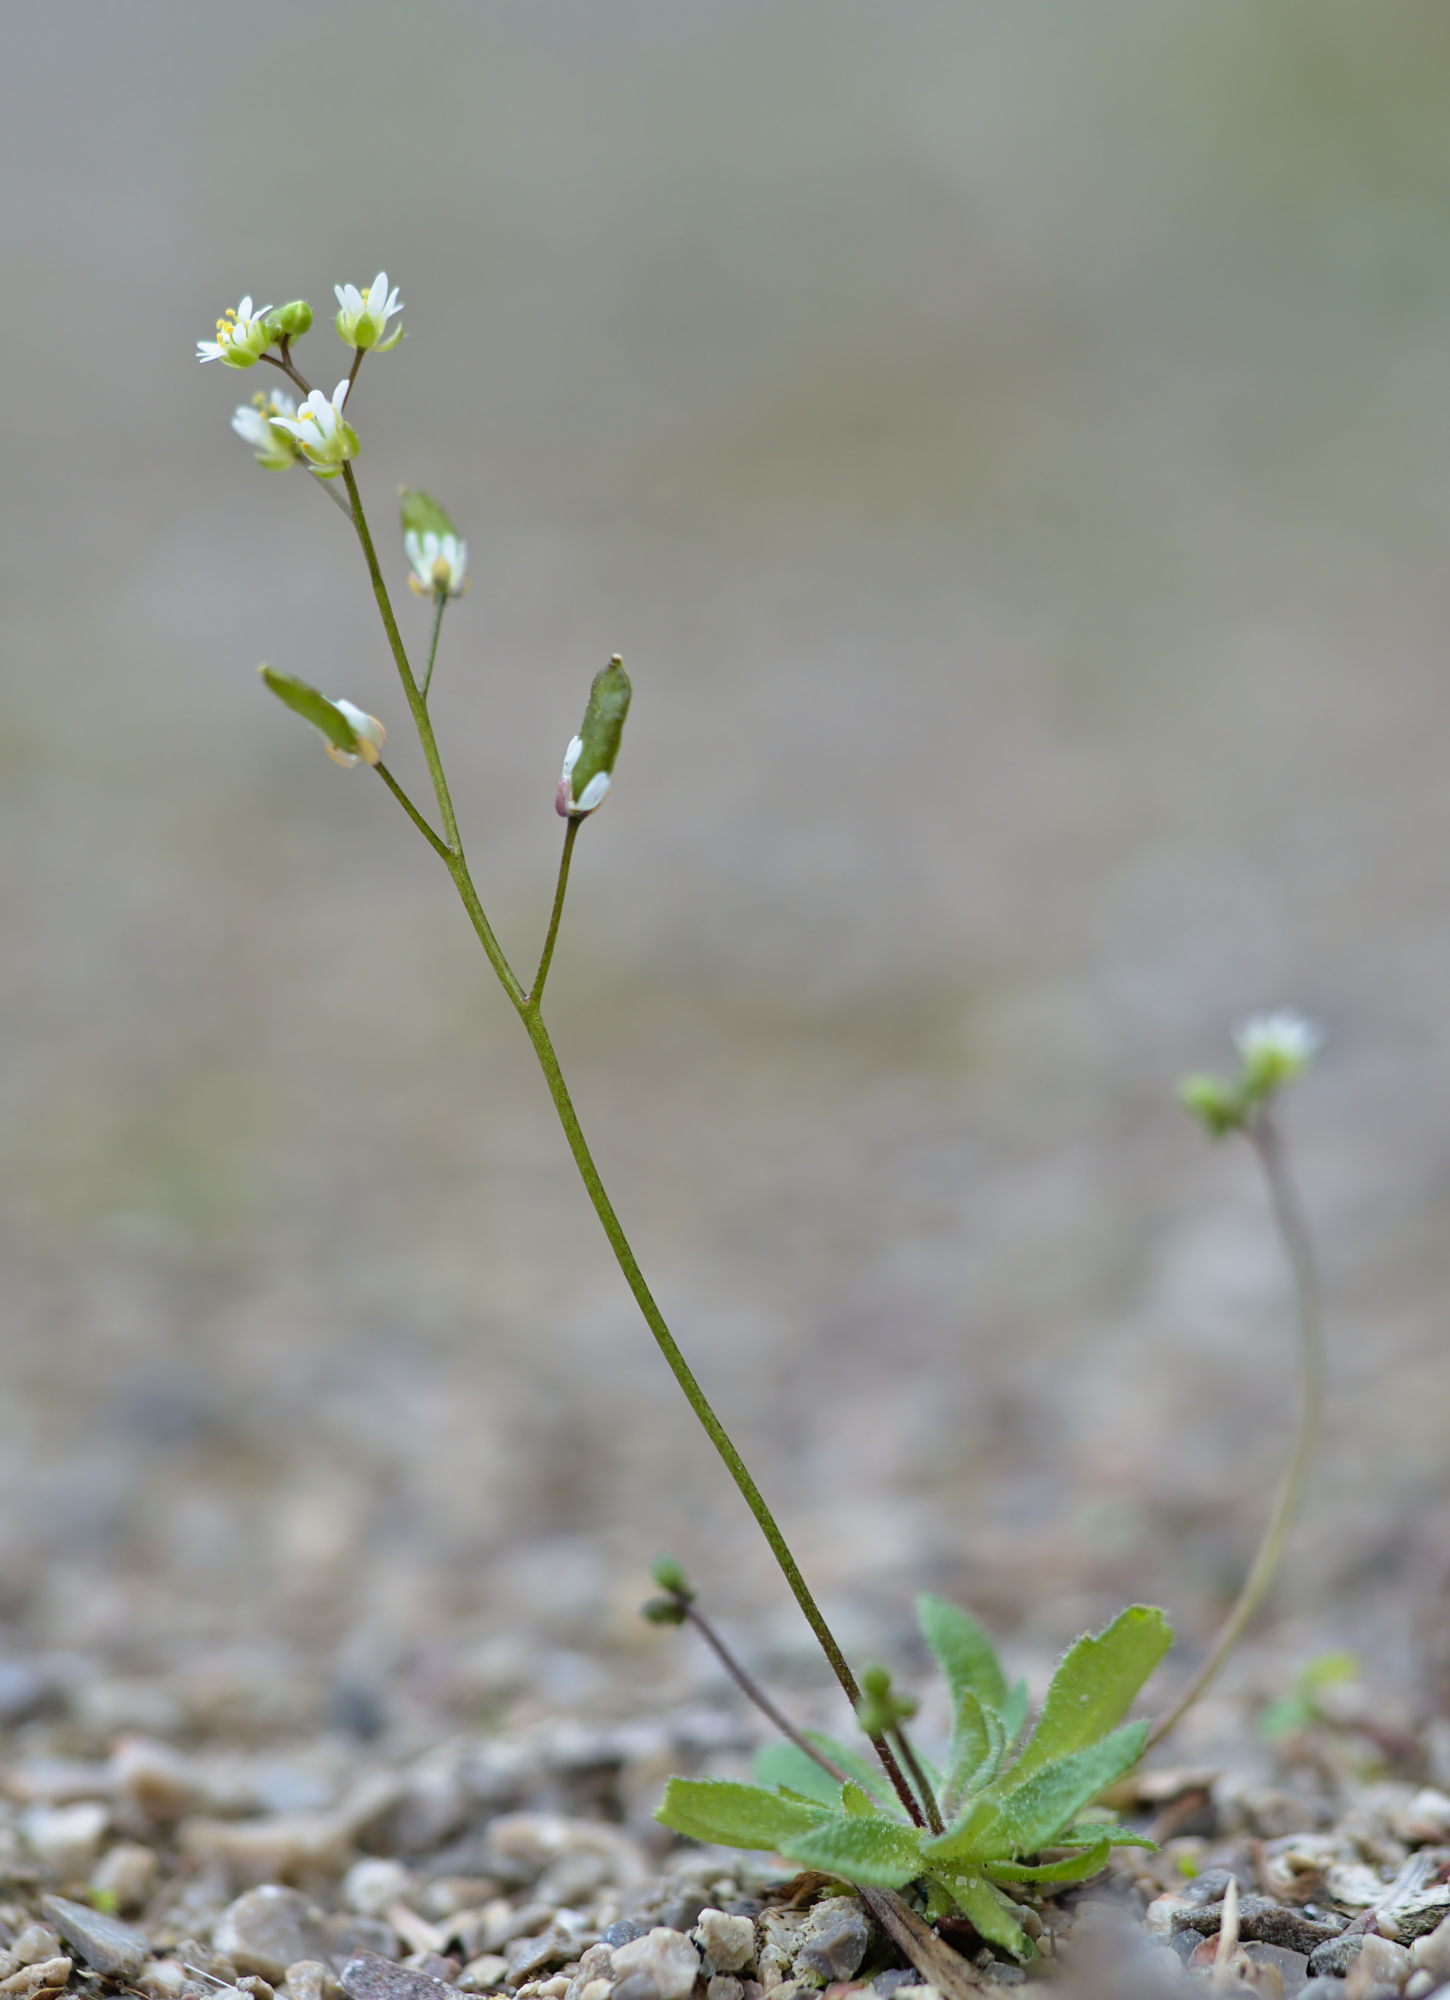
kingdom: Plantae
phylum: Tracheophyta
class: Magnoliopsida
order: Brassicales
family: Brassicaceae
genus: Draba
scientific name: Draba verna
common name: Spring draba
